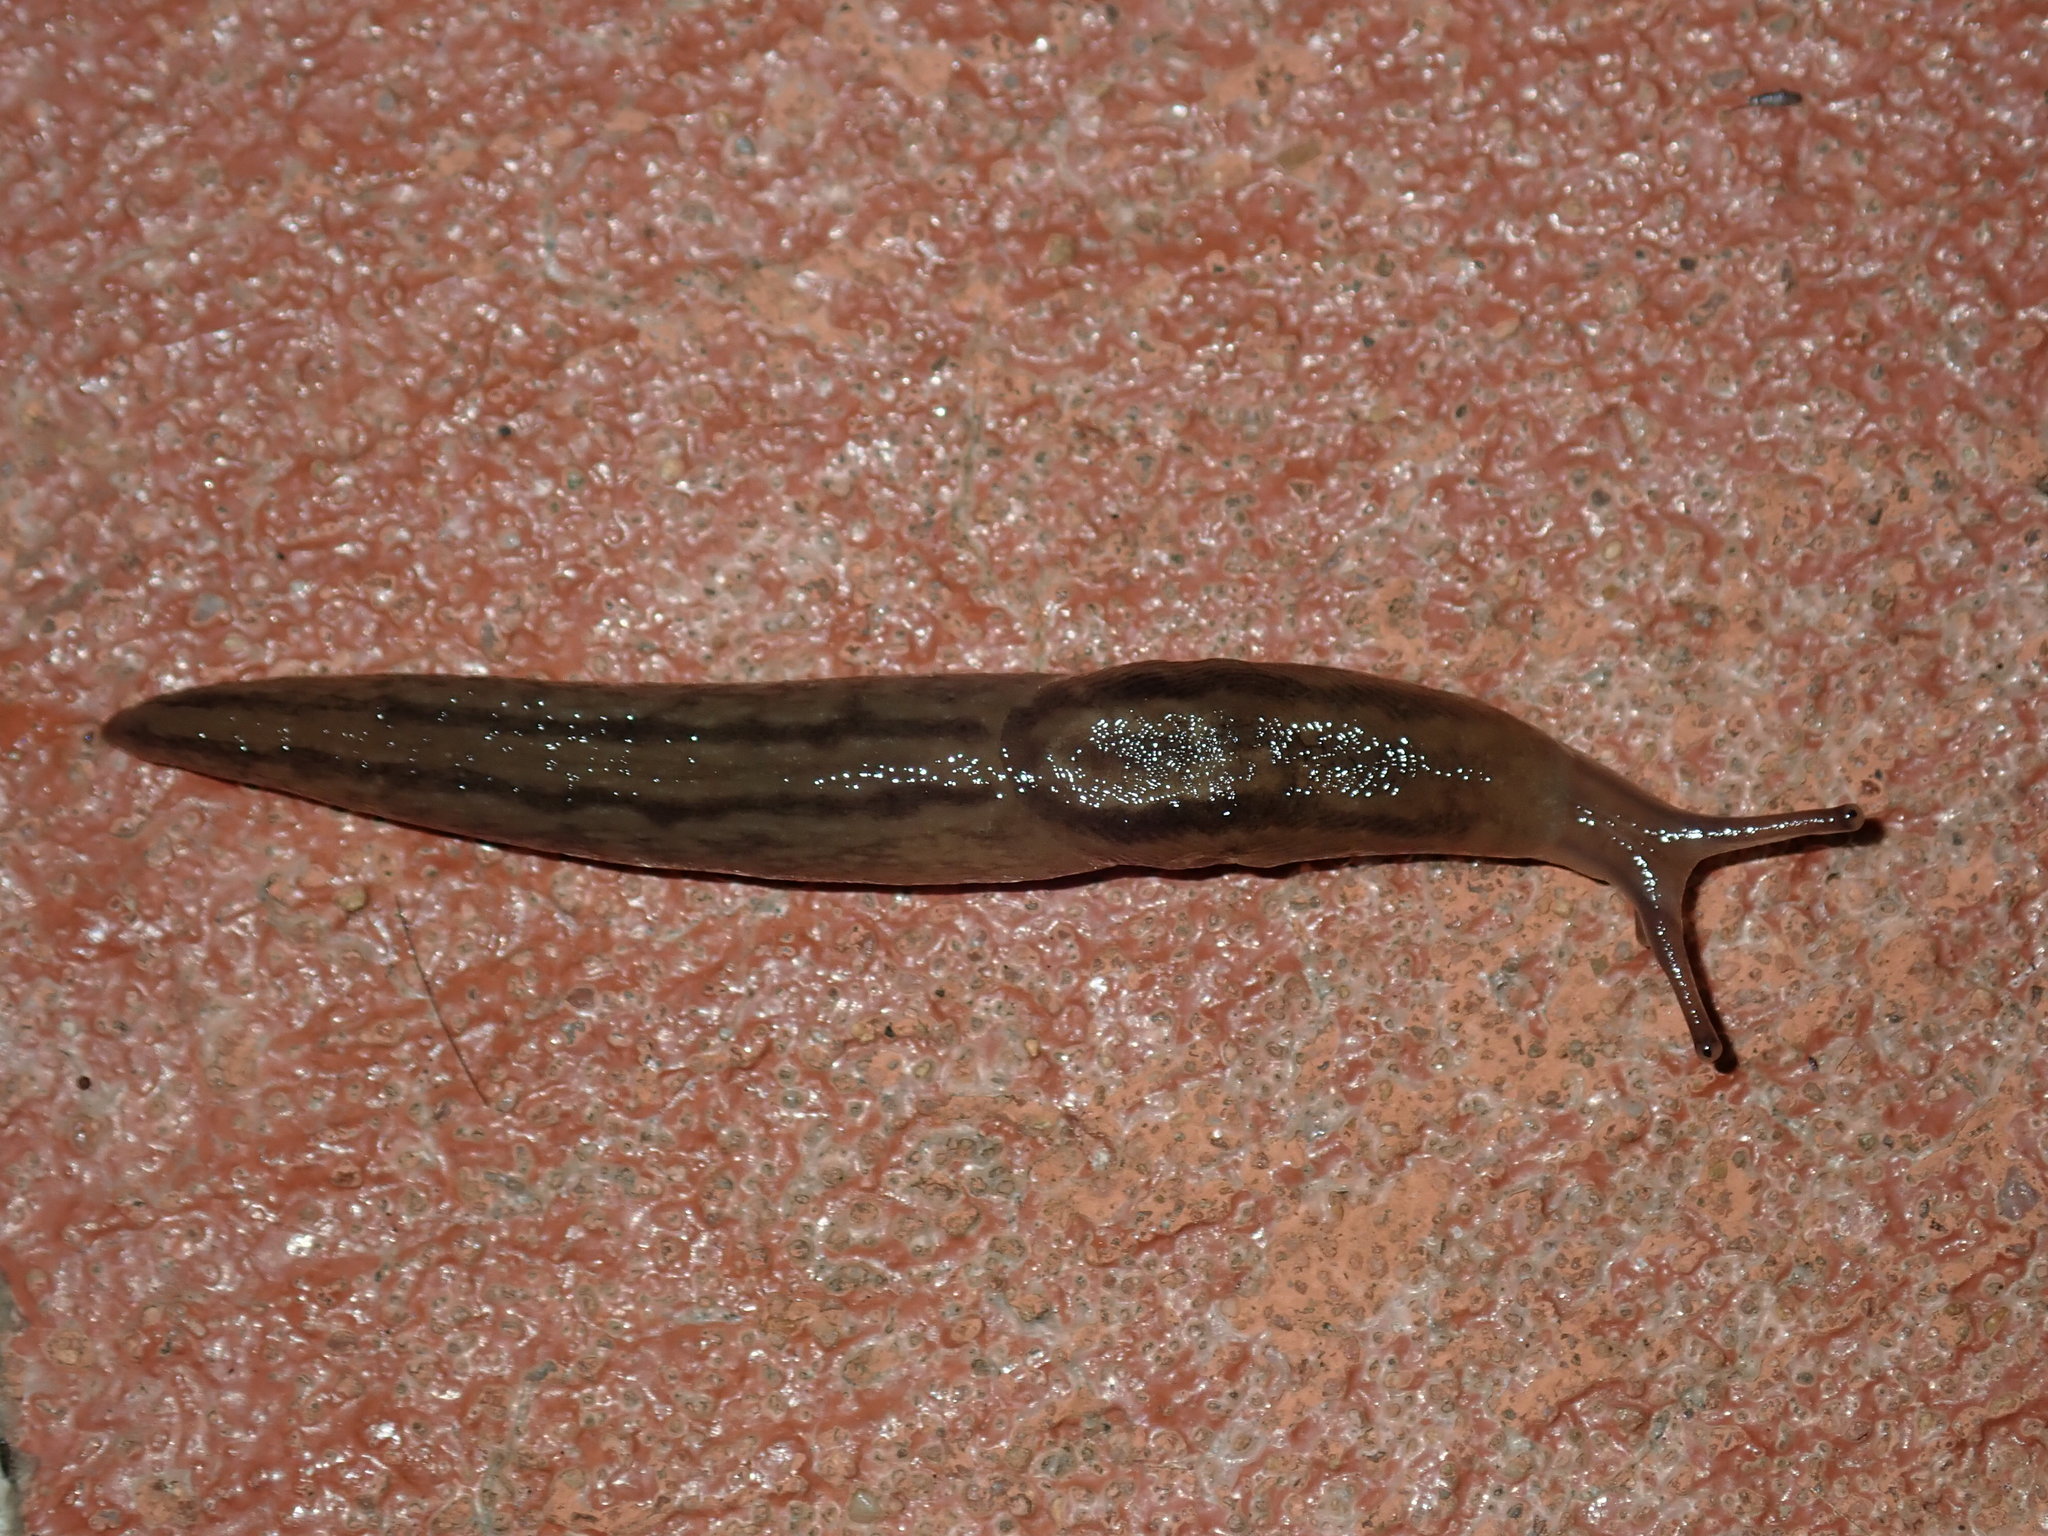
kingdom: Animalia
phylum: Mollusca
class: Gastropoda
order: Stylommatophora
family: Limacidae
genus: Ambigolimax
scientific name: Ambigolimax
